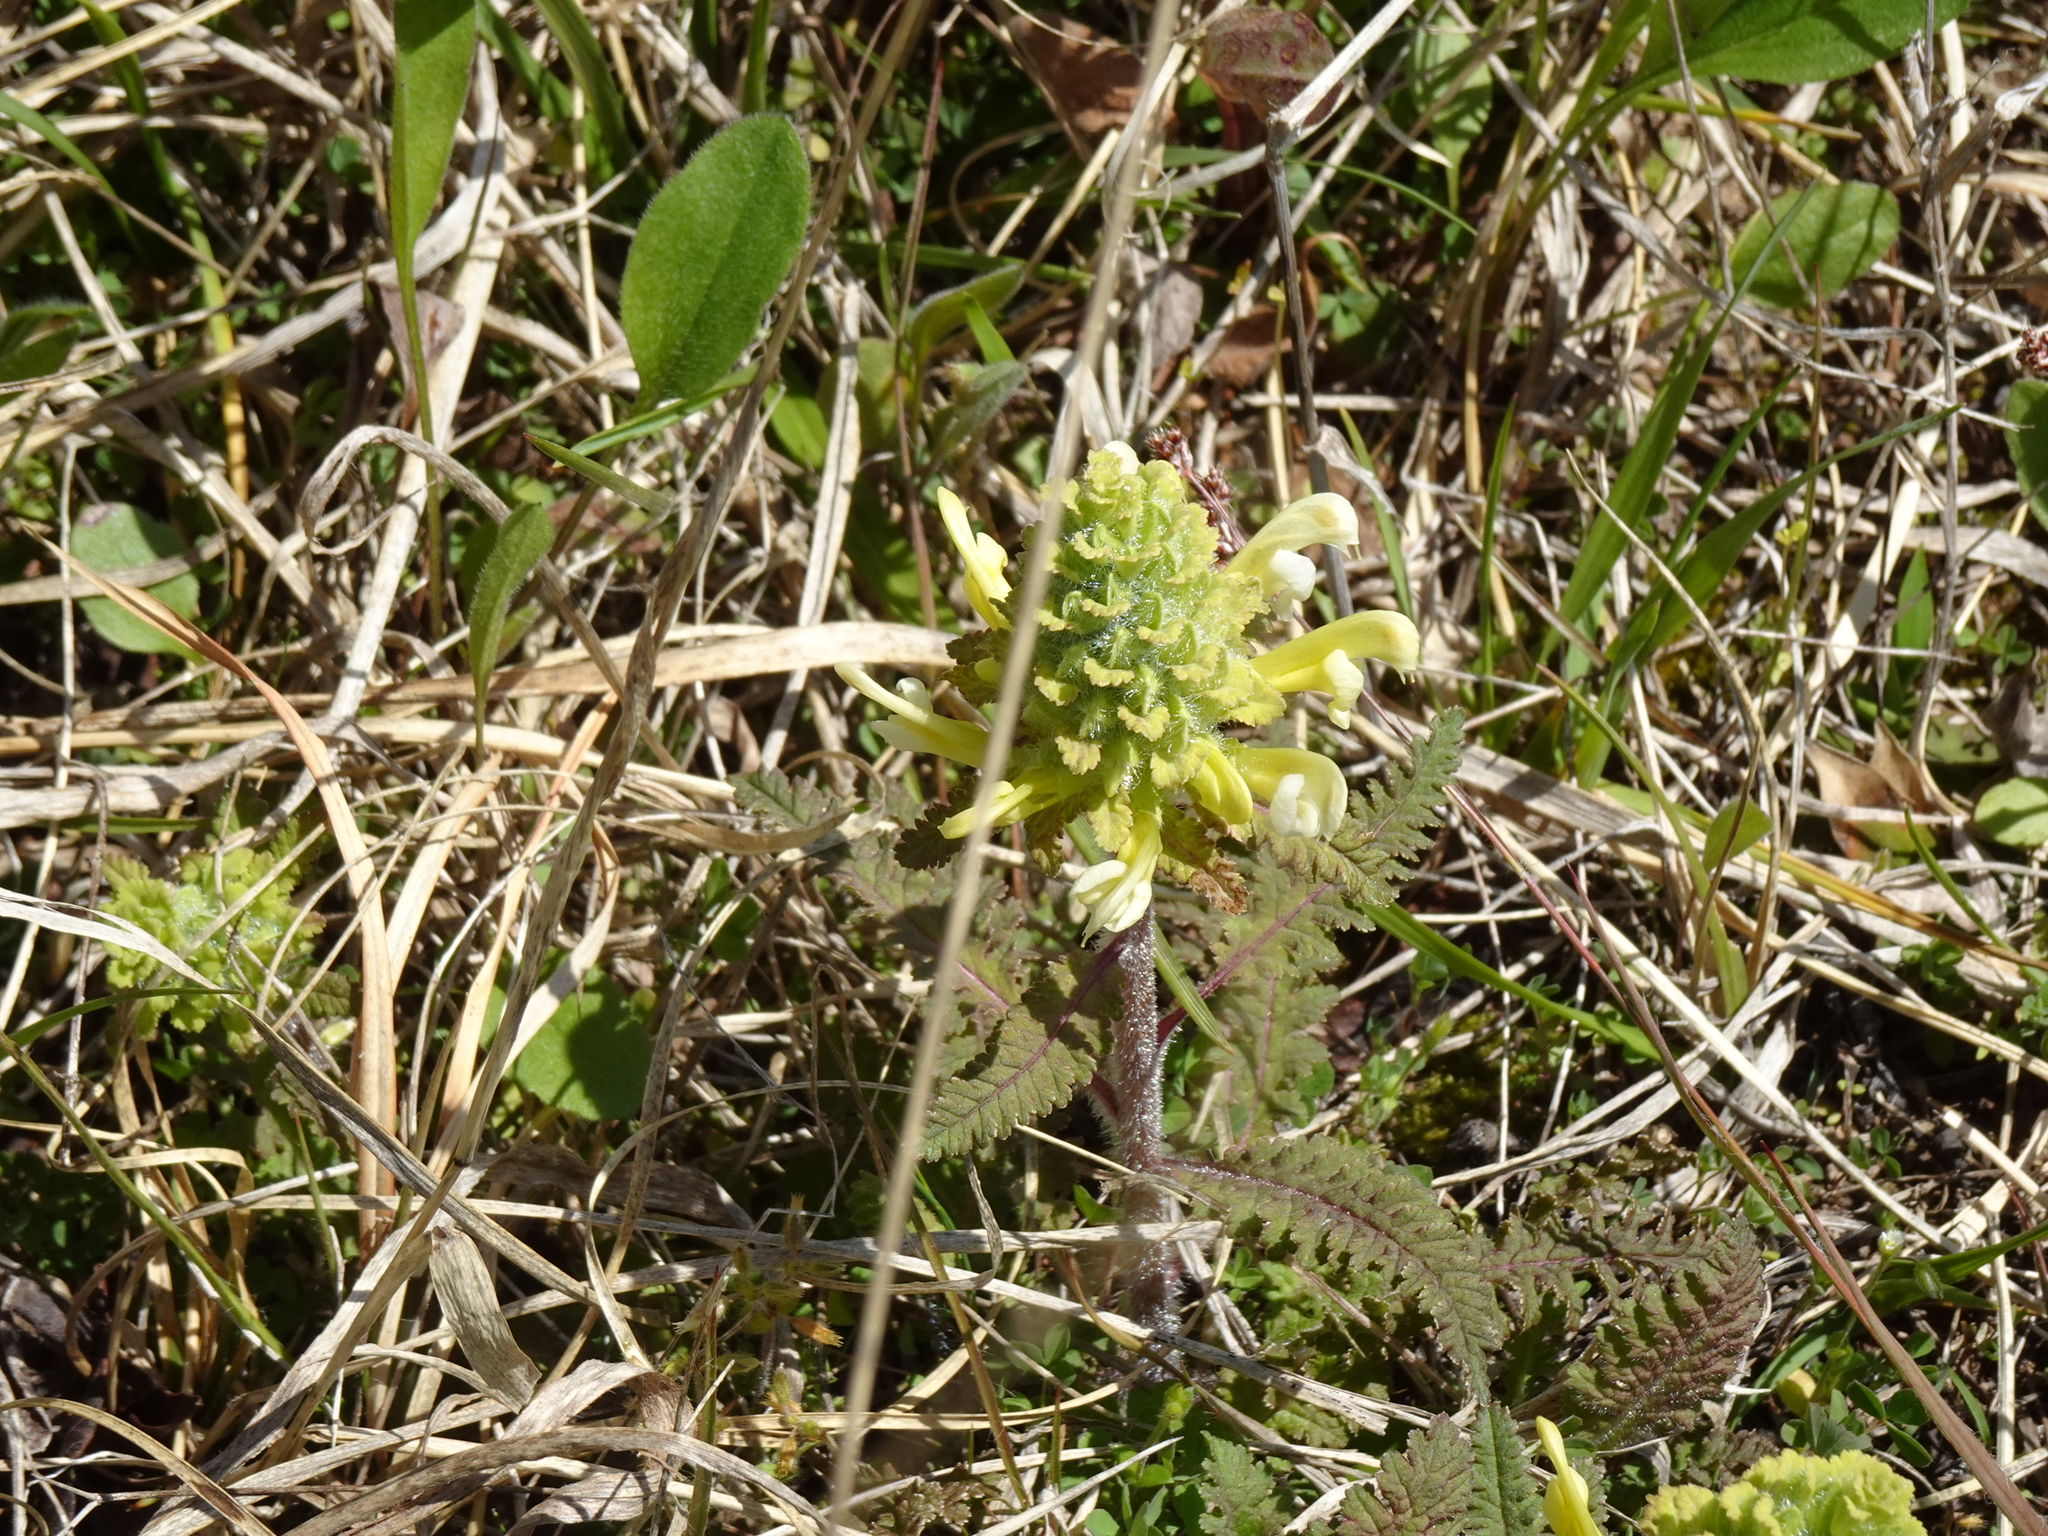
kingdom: Plantae
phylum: Tracheophyta
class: Magnoliopsida
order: Lamiales
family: Orobanchaceae
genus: Pedicularis
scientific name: Pedicularis canadensis
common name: Early lousewort
